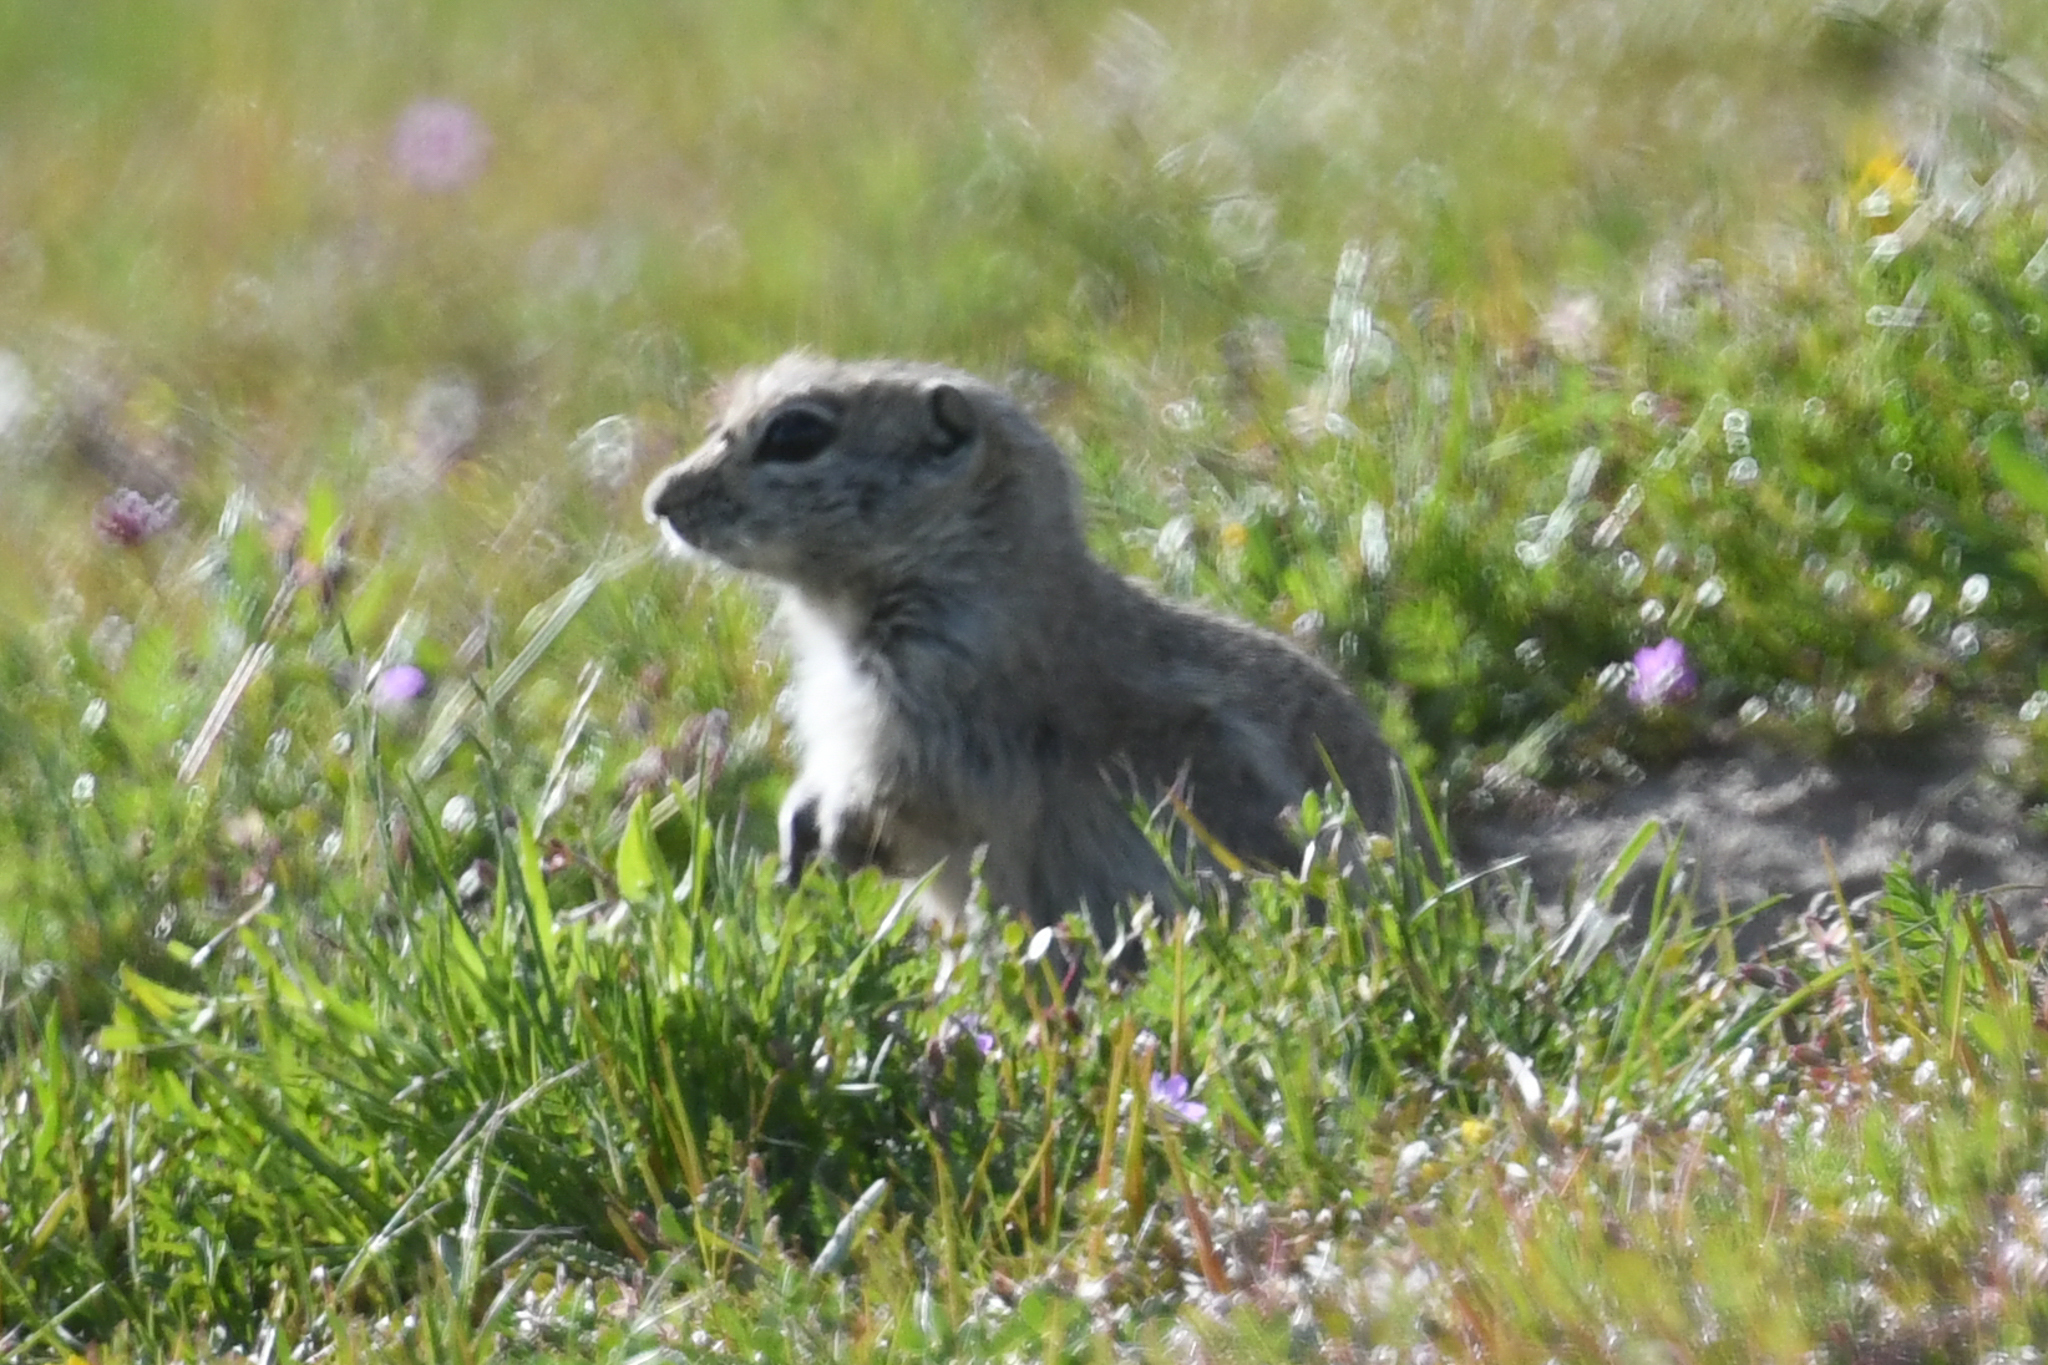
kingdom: Animalia
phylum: Chordata
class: Mammalia
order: Rodentia
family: Sciuridae
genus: Ammospermophilus
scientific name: Ammospermophilus nelsoni
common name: Nelson's antelope squirrel
